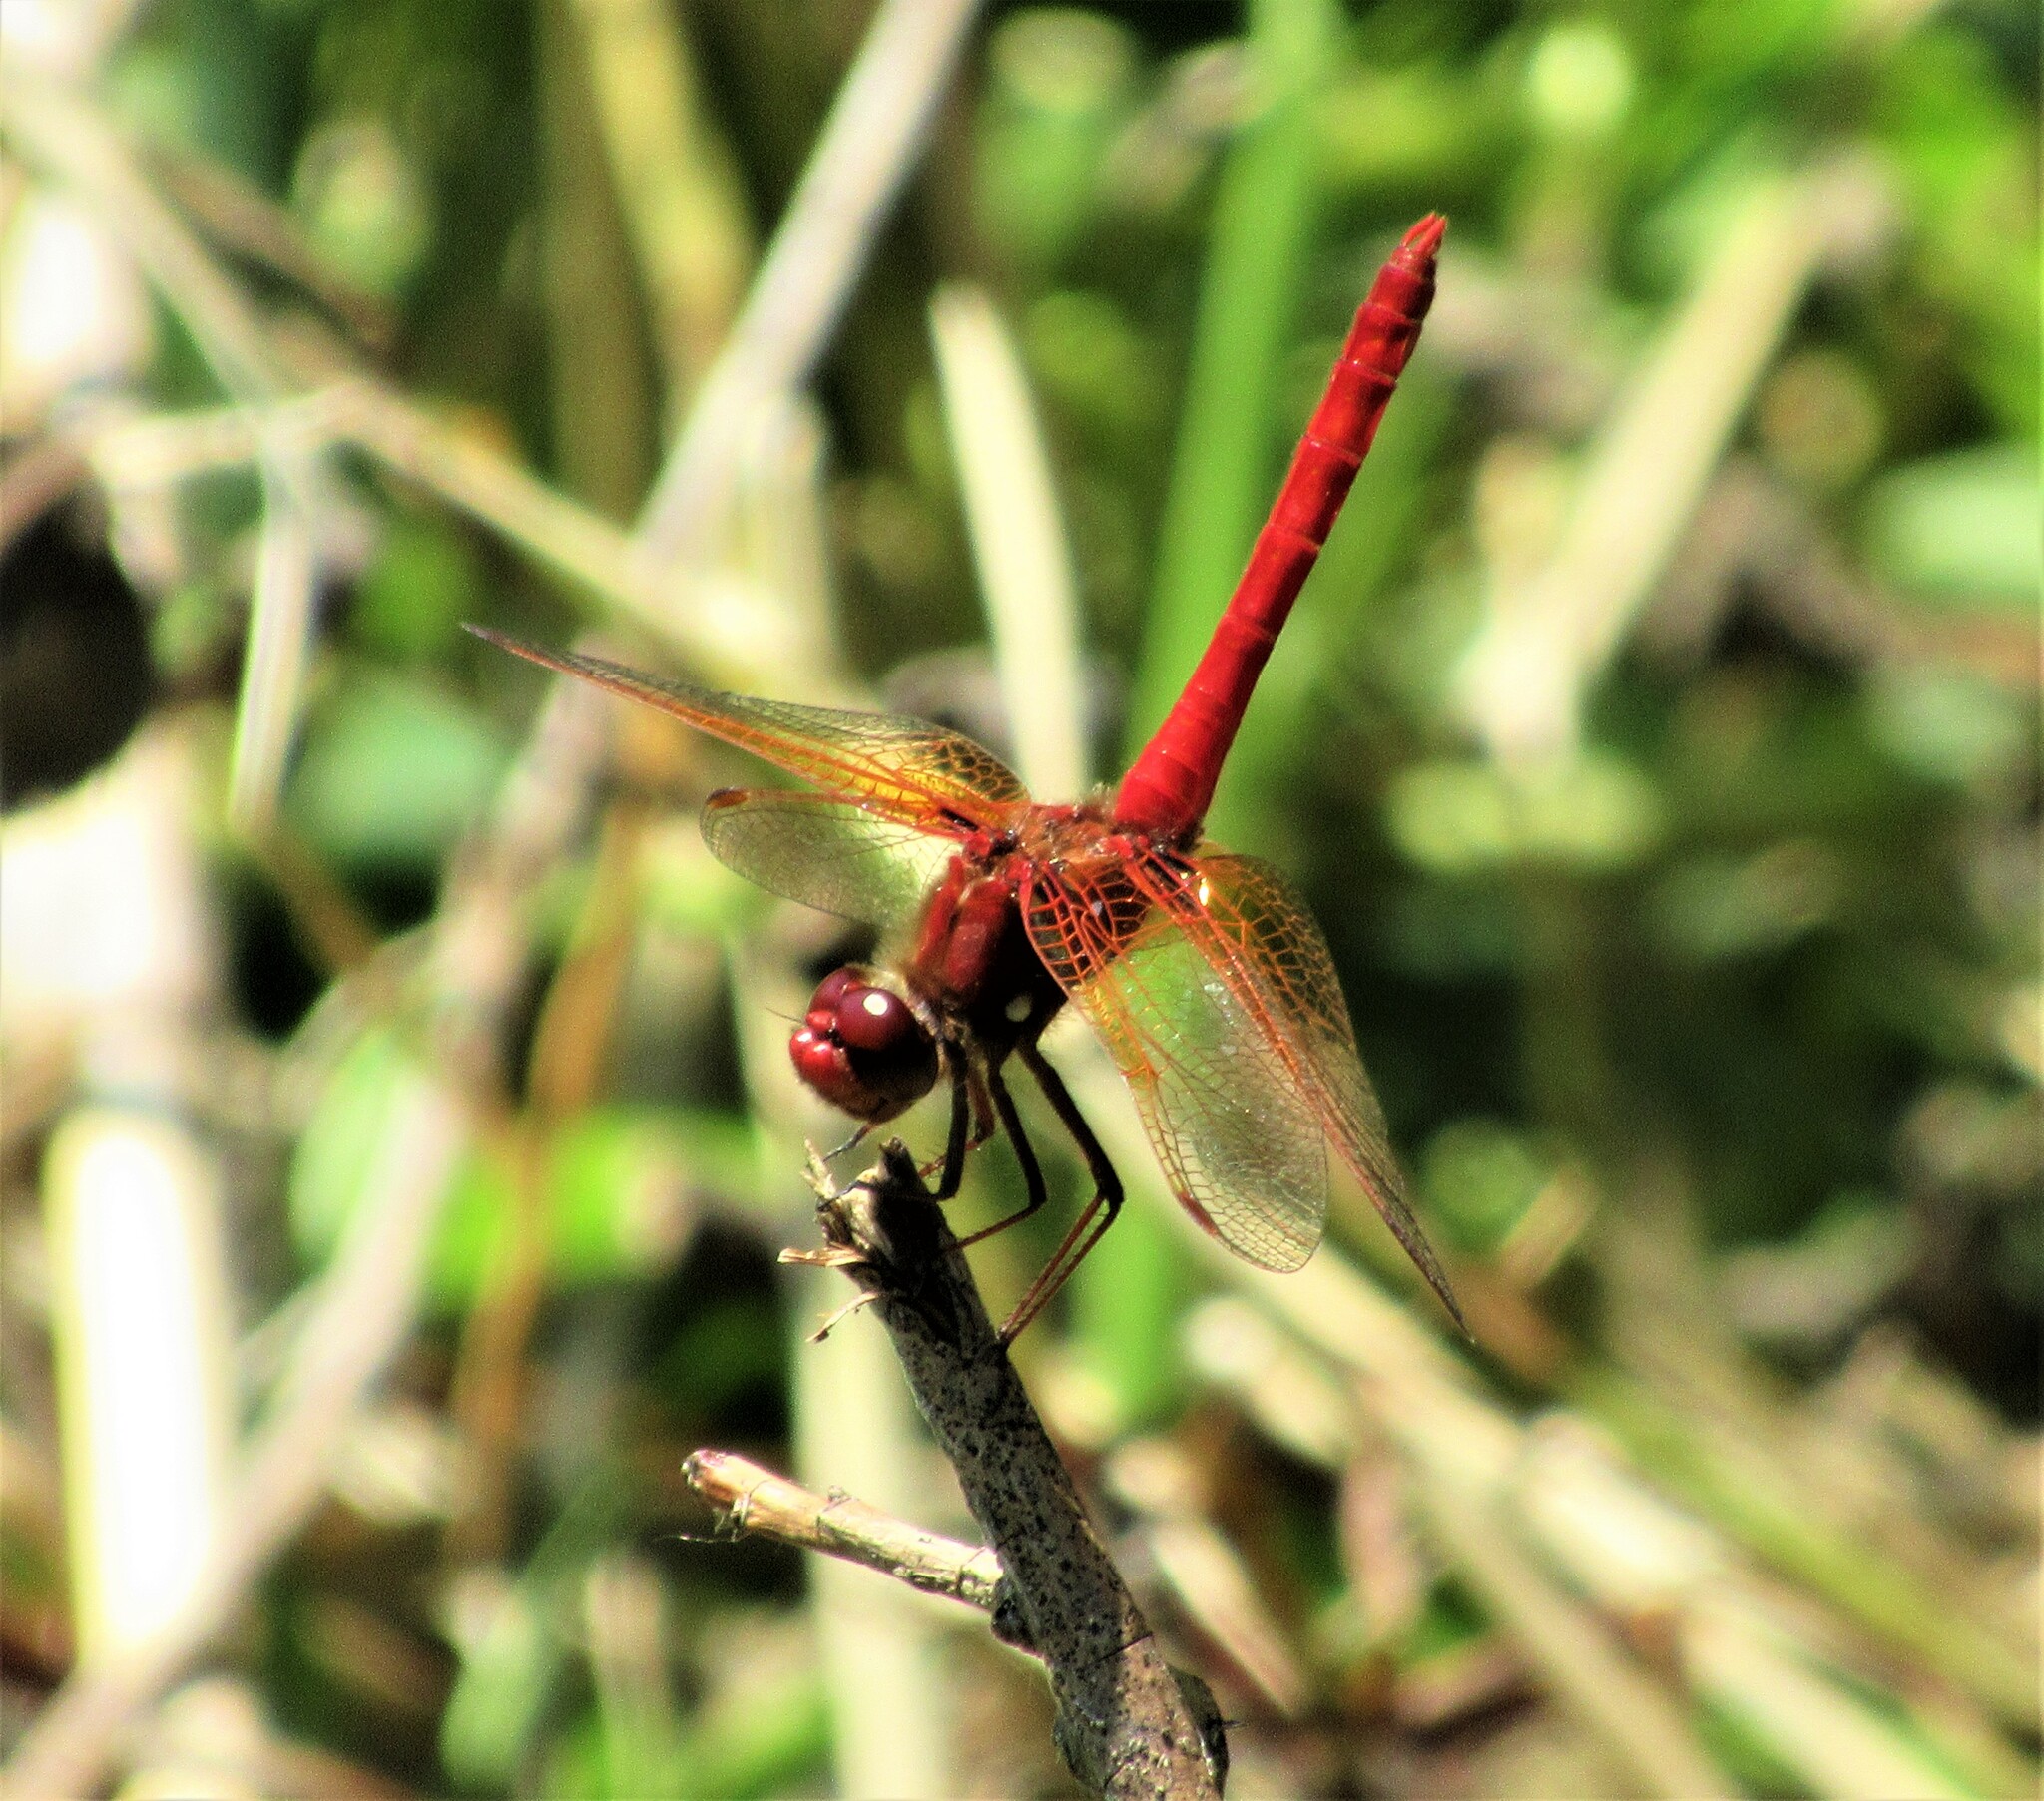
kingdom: Animalia
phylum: Arthropoda
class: Insecta
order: Odonata
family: Libellulidae
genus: Sympetrum
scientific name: Sympetrum illotum
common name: Cardinal meadowhawk
